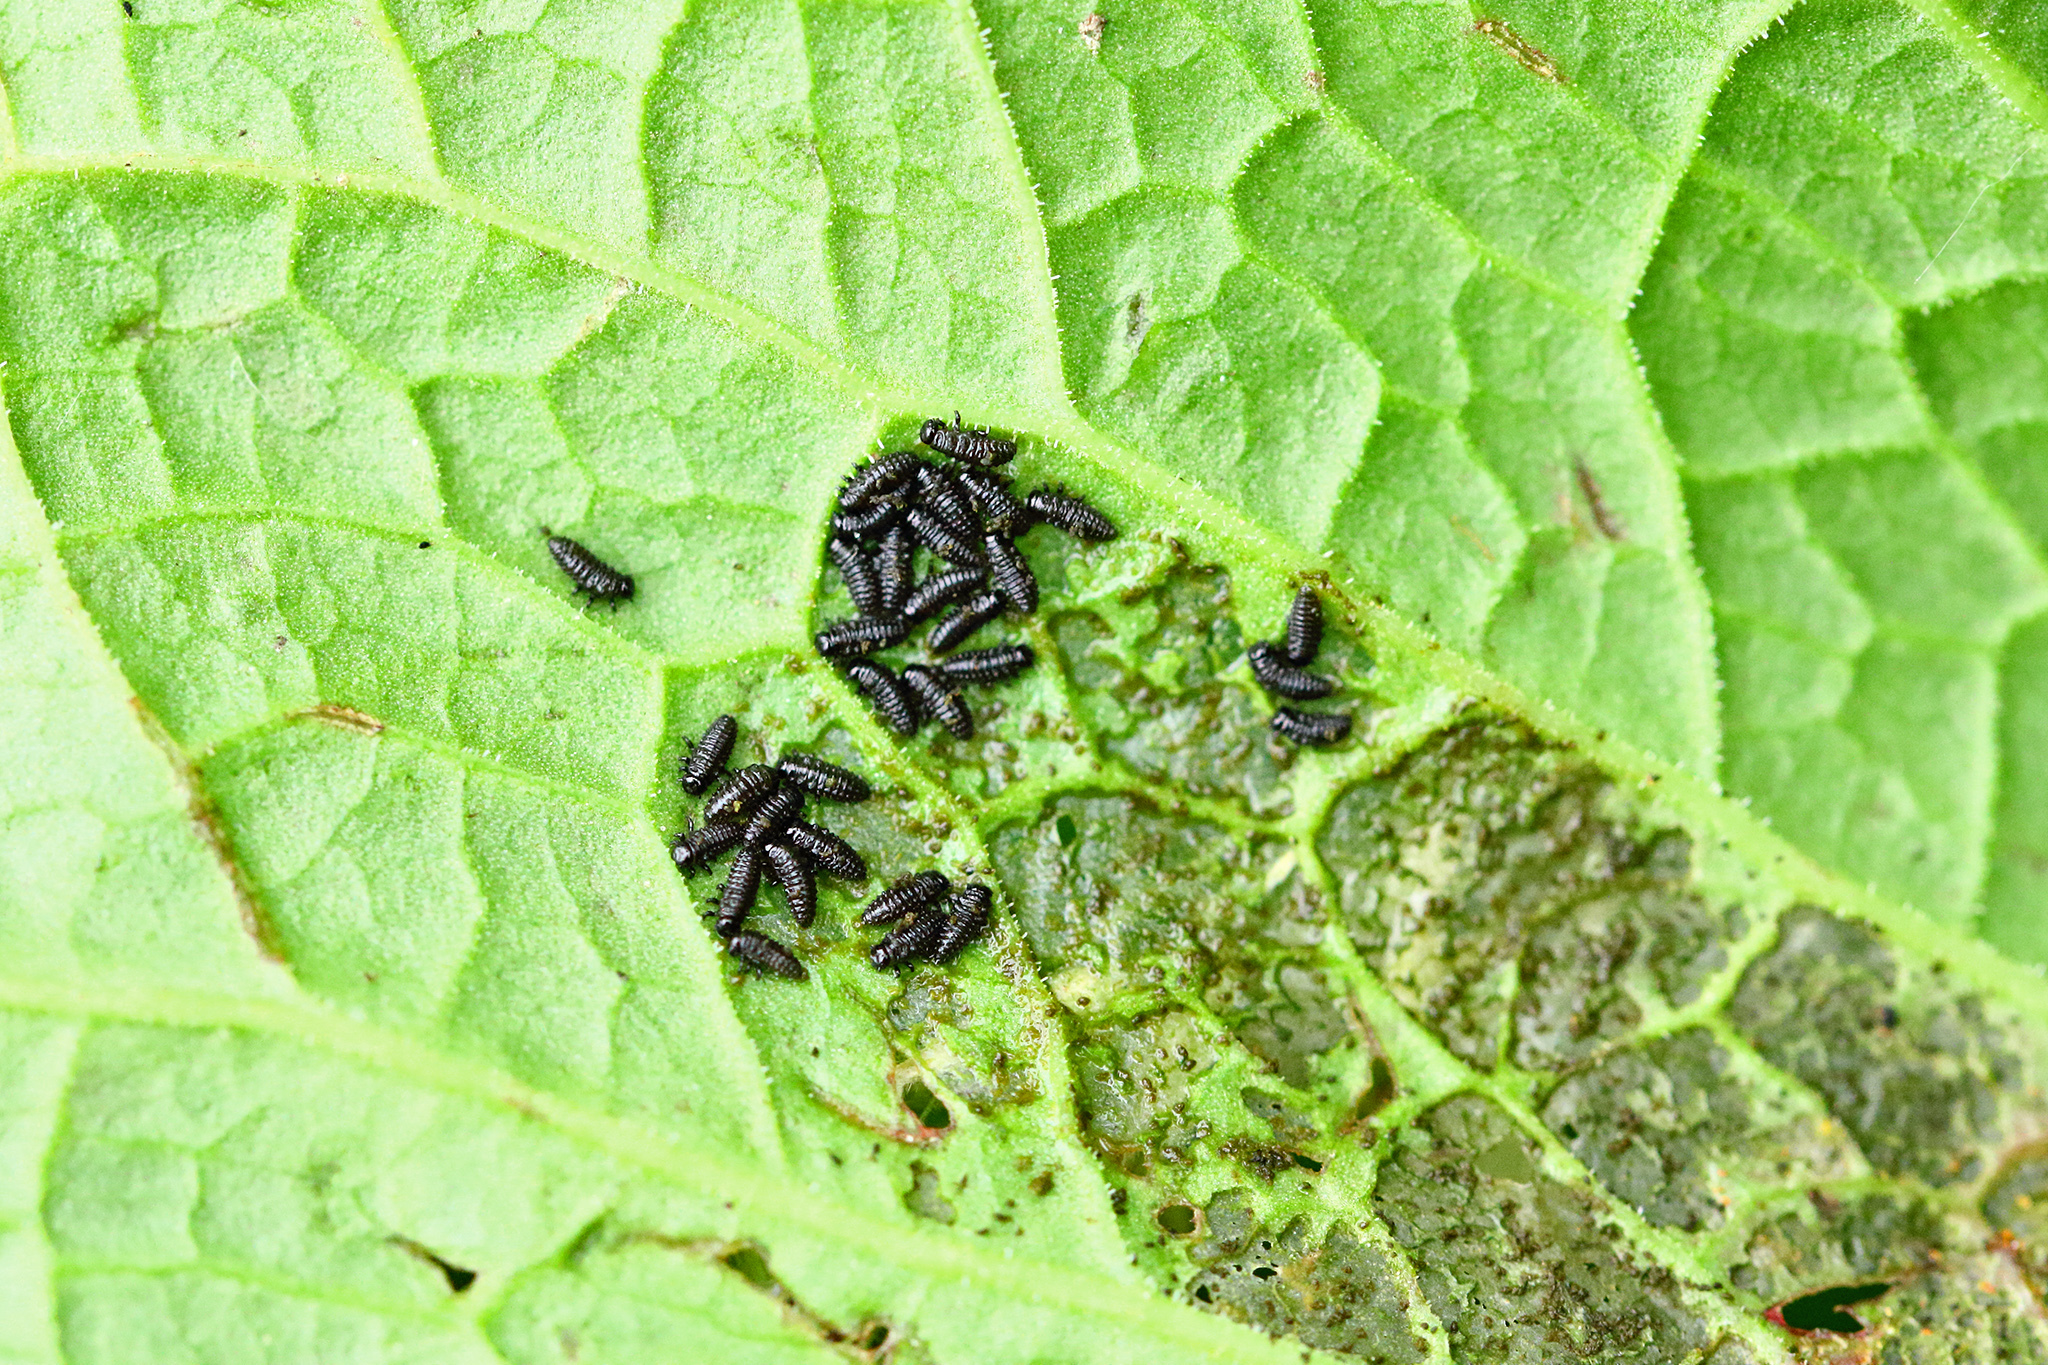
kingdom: Animalia
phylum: Arthropoda
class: Insecta
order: Coleoptera
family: Chrysomelidae
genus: Gastrophysa
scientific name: Gastrophysa viridula
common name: Green dock beetle
